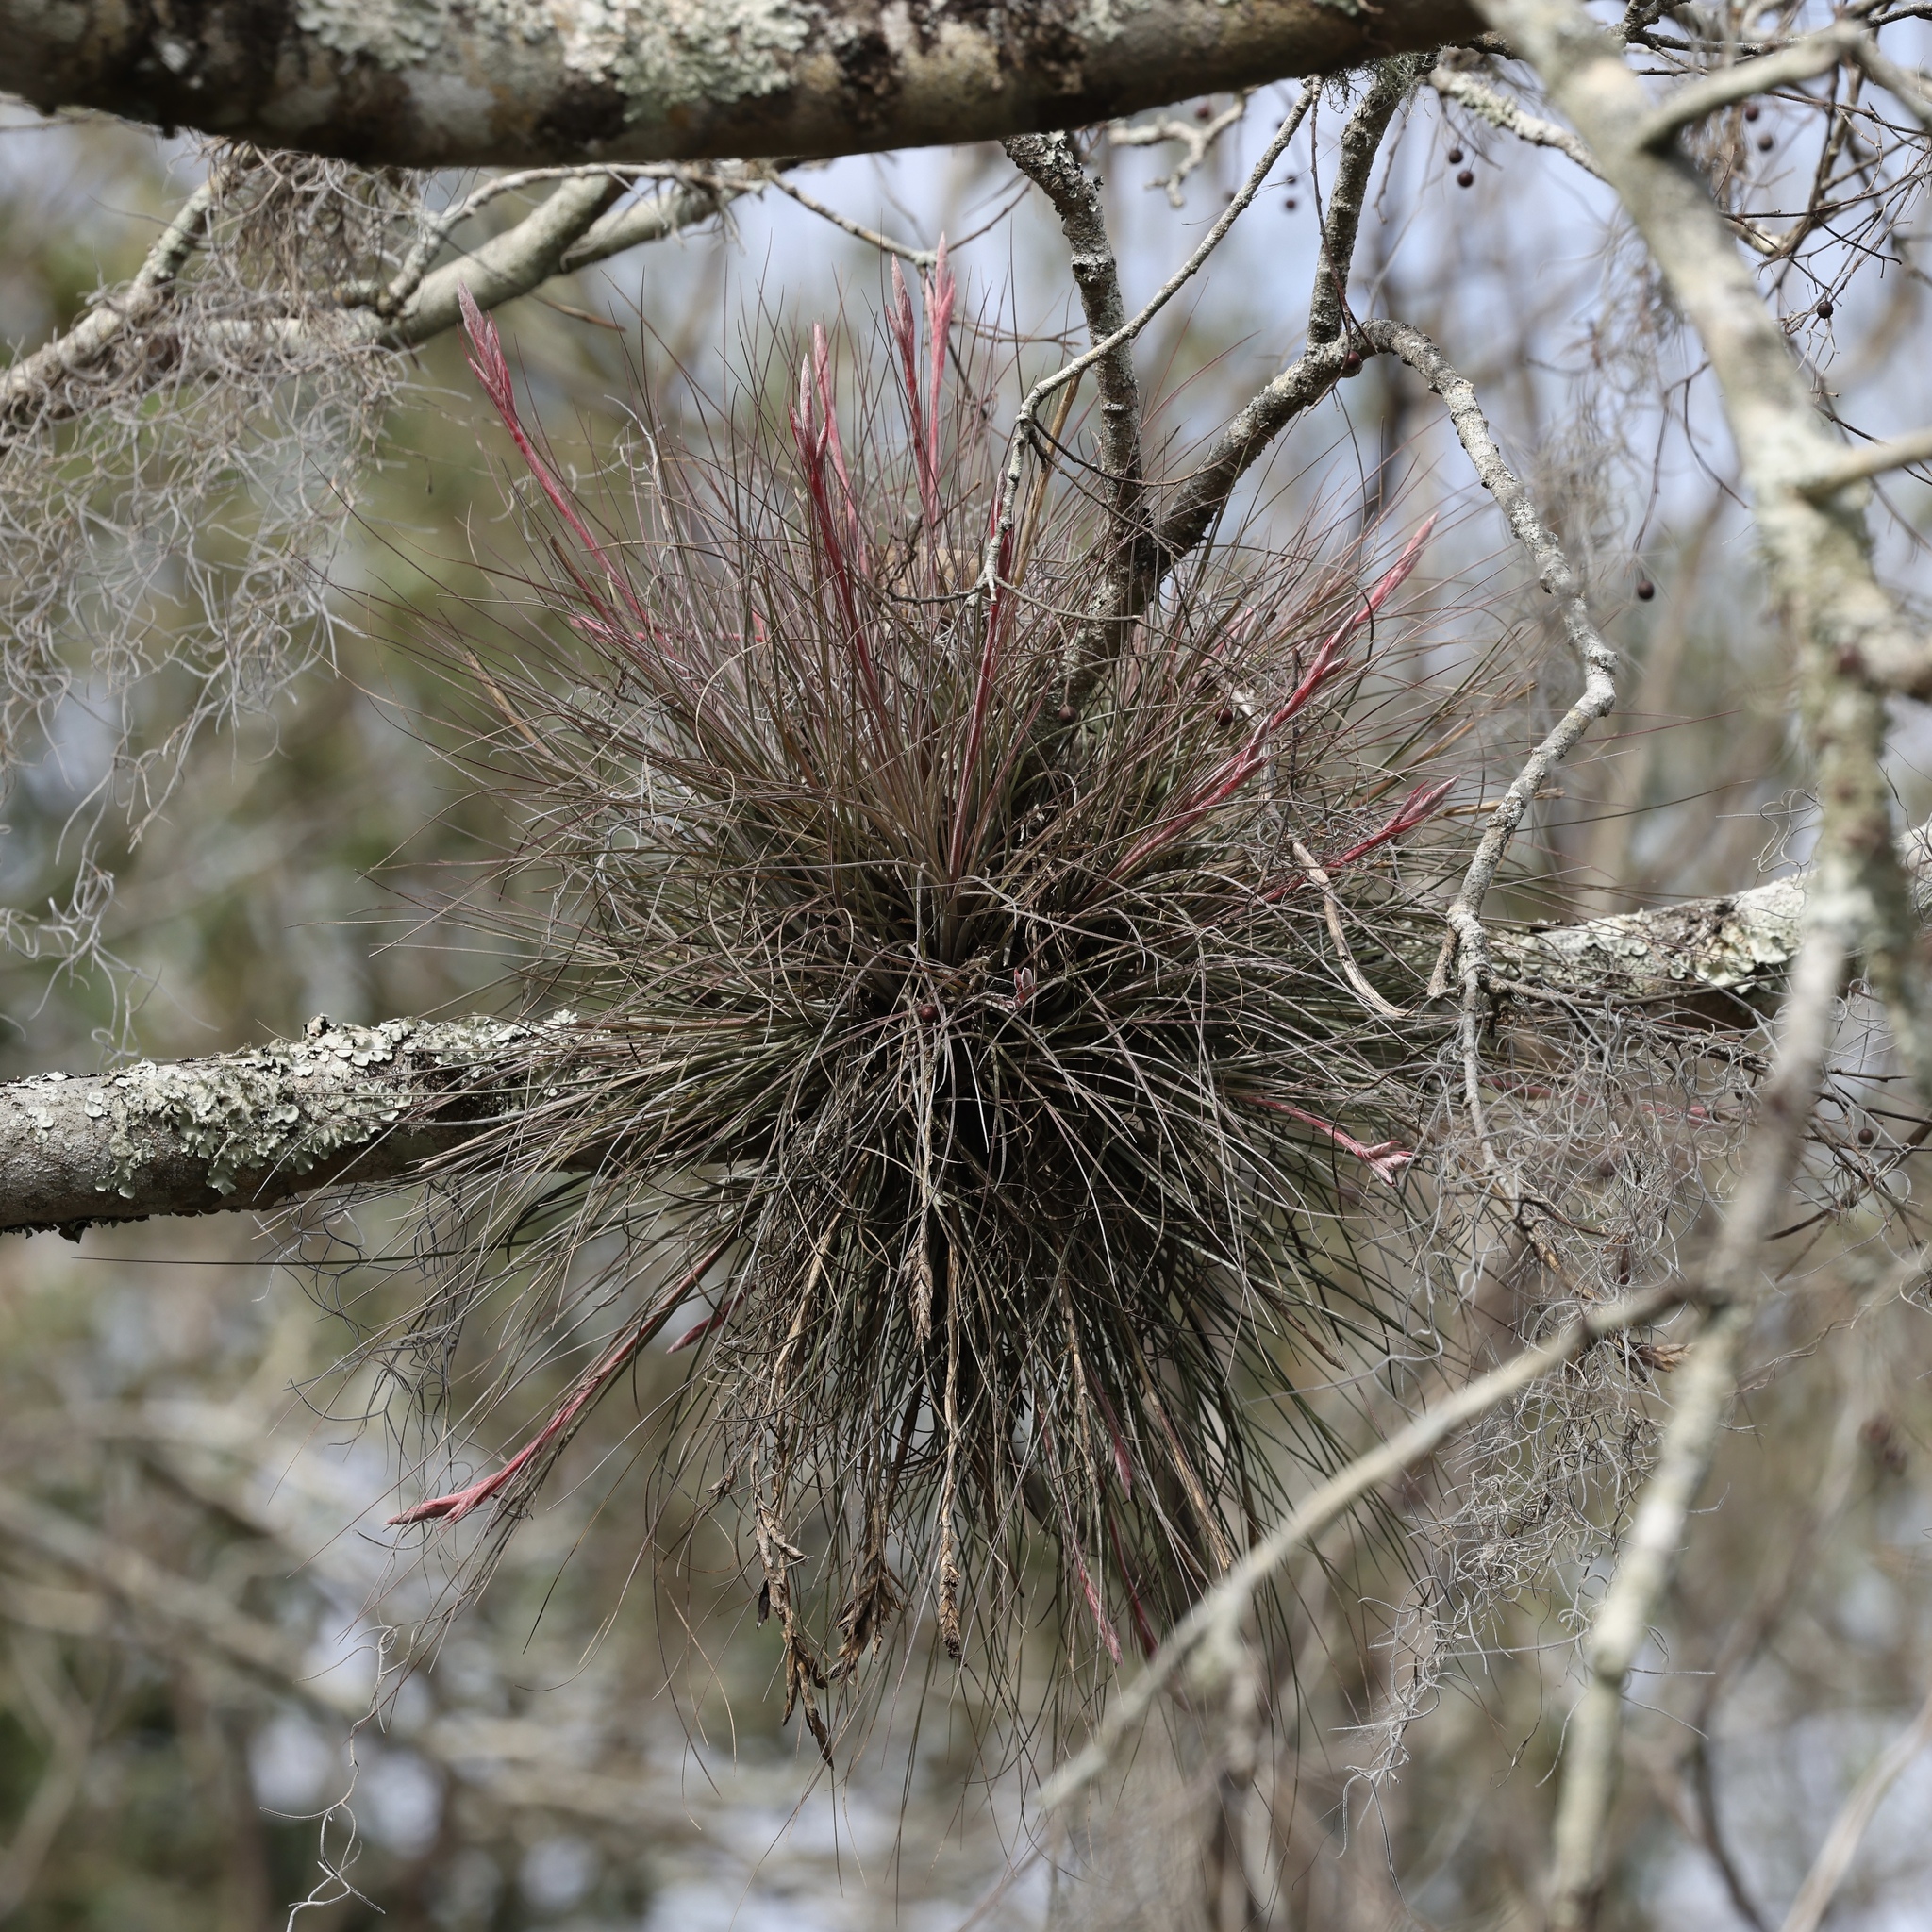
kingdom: Plantae
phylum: Tracheophyta
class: Liliopsida
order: Poales
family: Bromeliaceae
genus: Tillandsia
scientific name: Tillandsia bartramii
